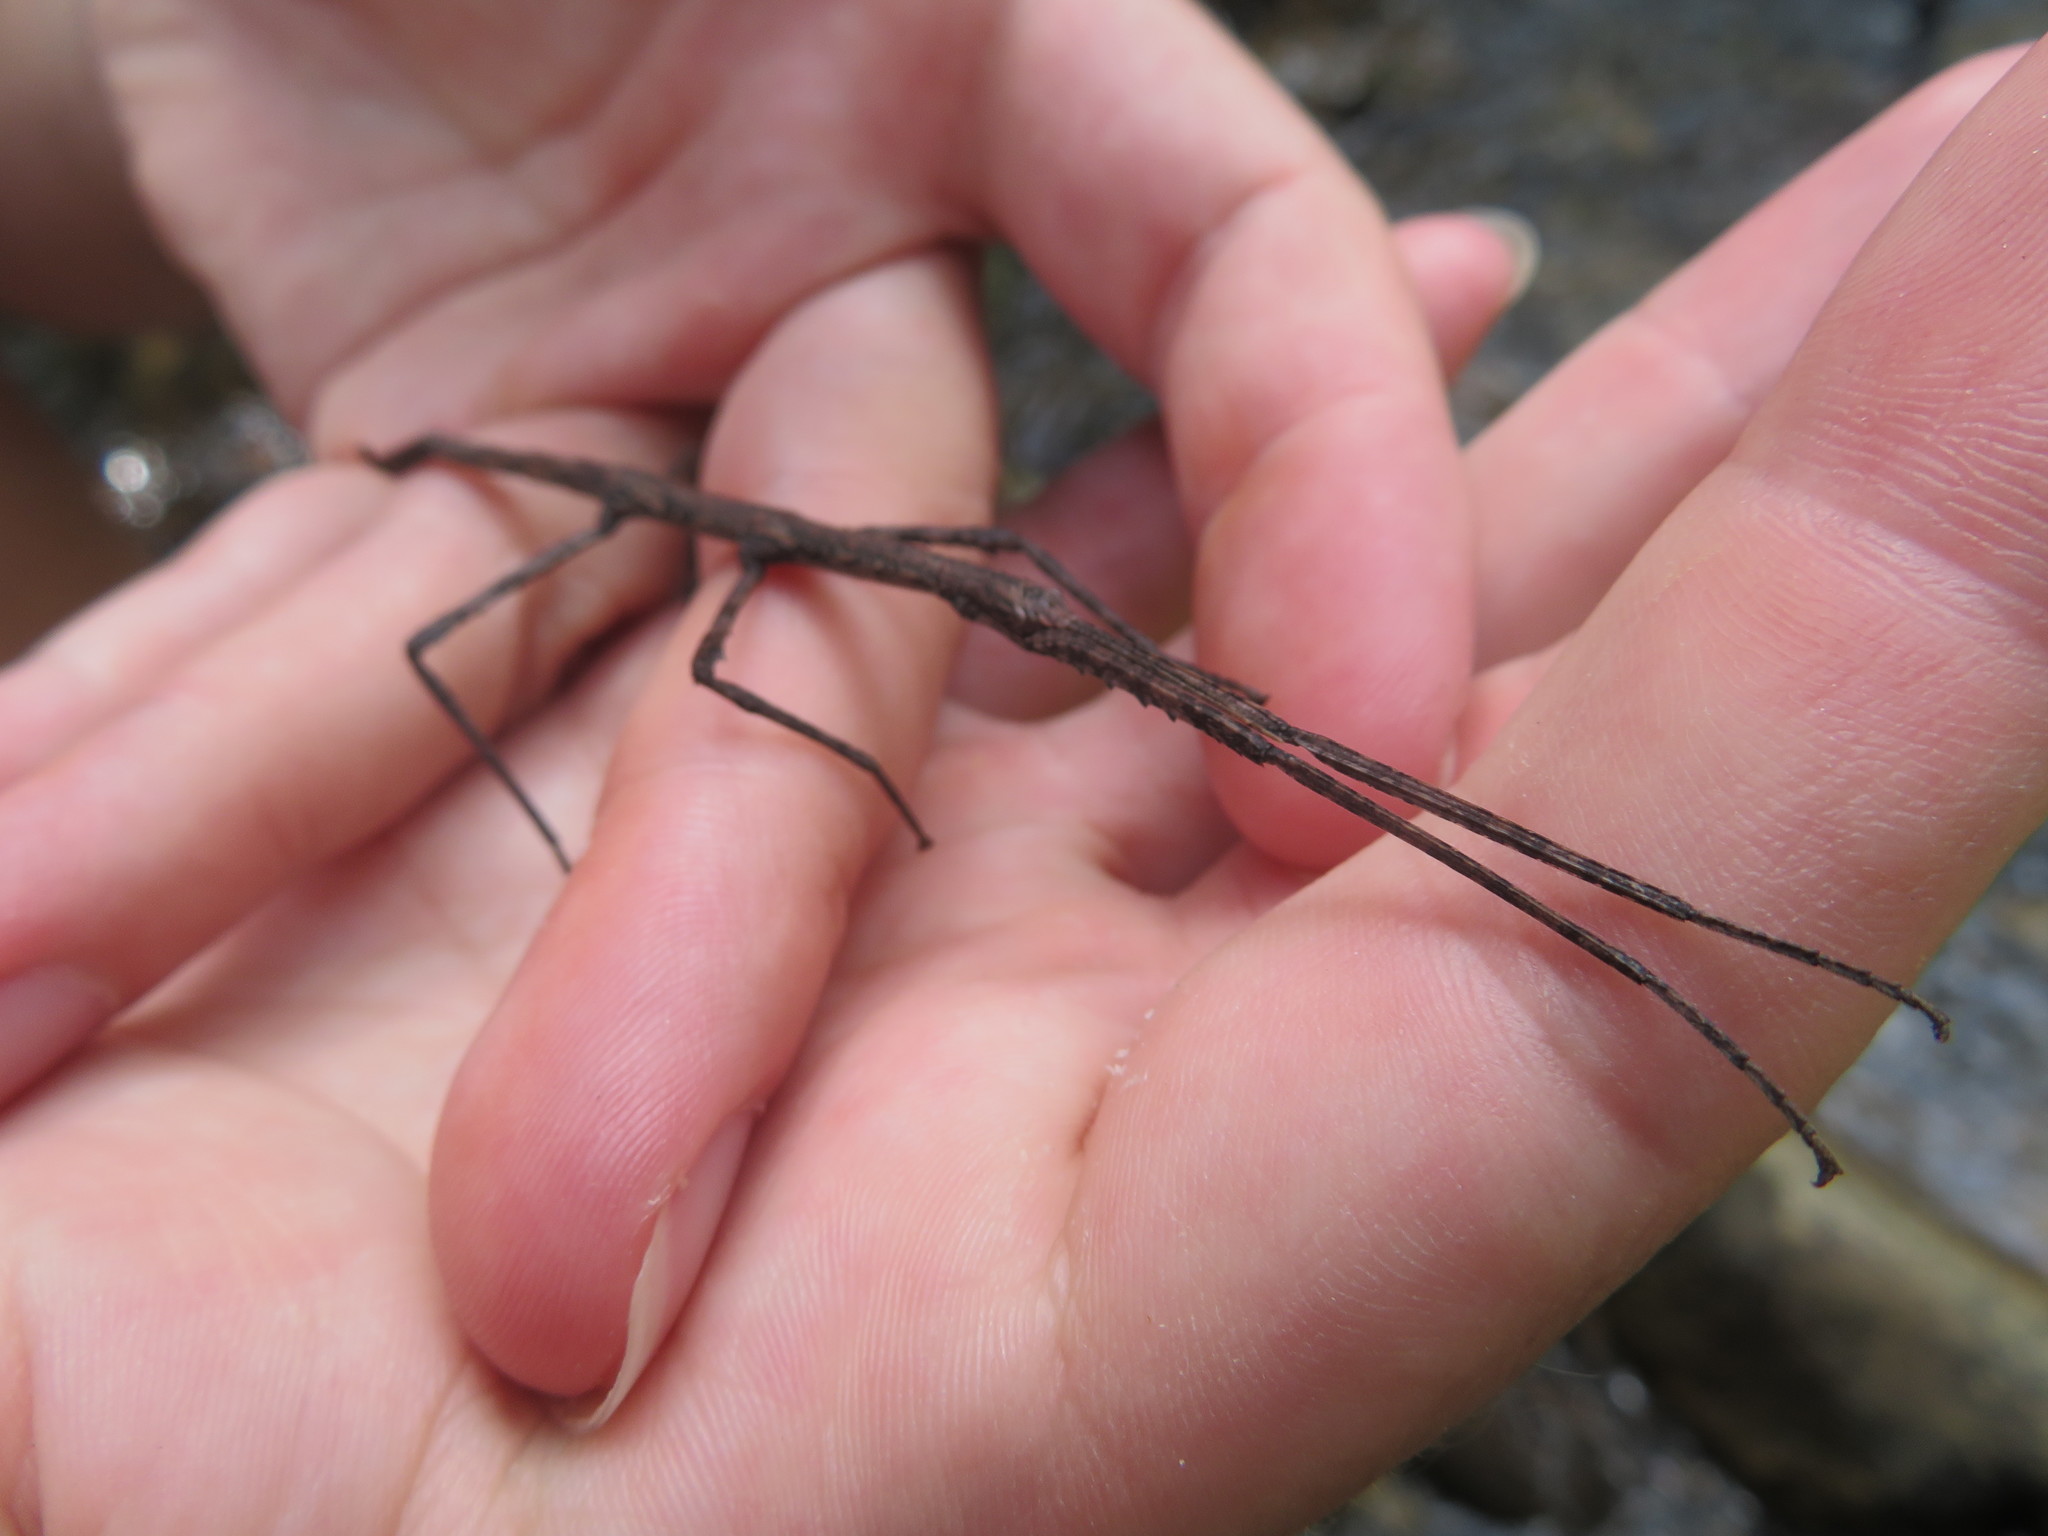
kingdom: Animalia
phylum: Arthropoda
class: Insecta
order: Phasmida
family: Phasmatidae
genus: Clitarchus
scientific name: Clitarchus hookeri
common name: Smooth stick insect
